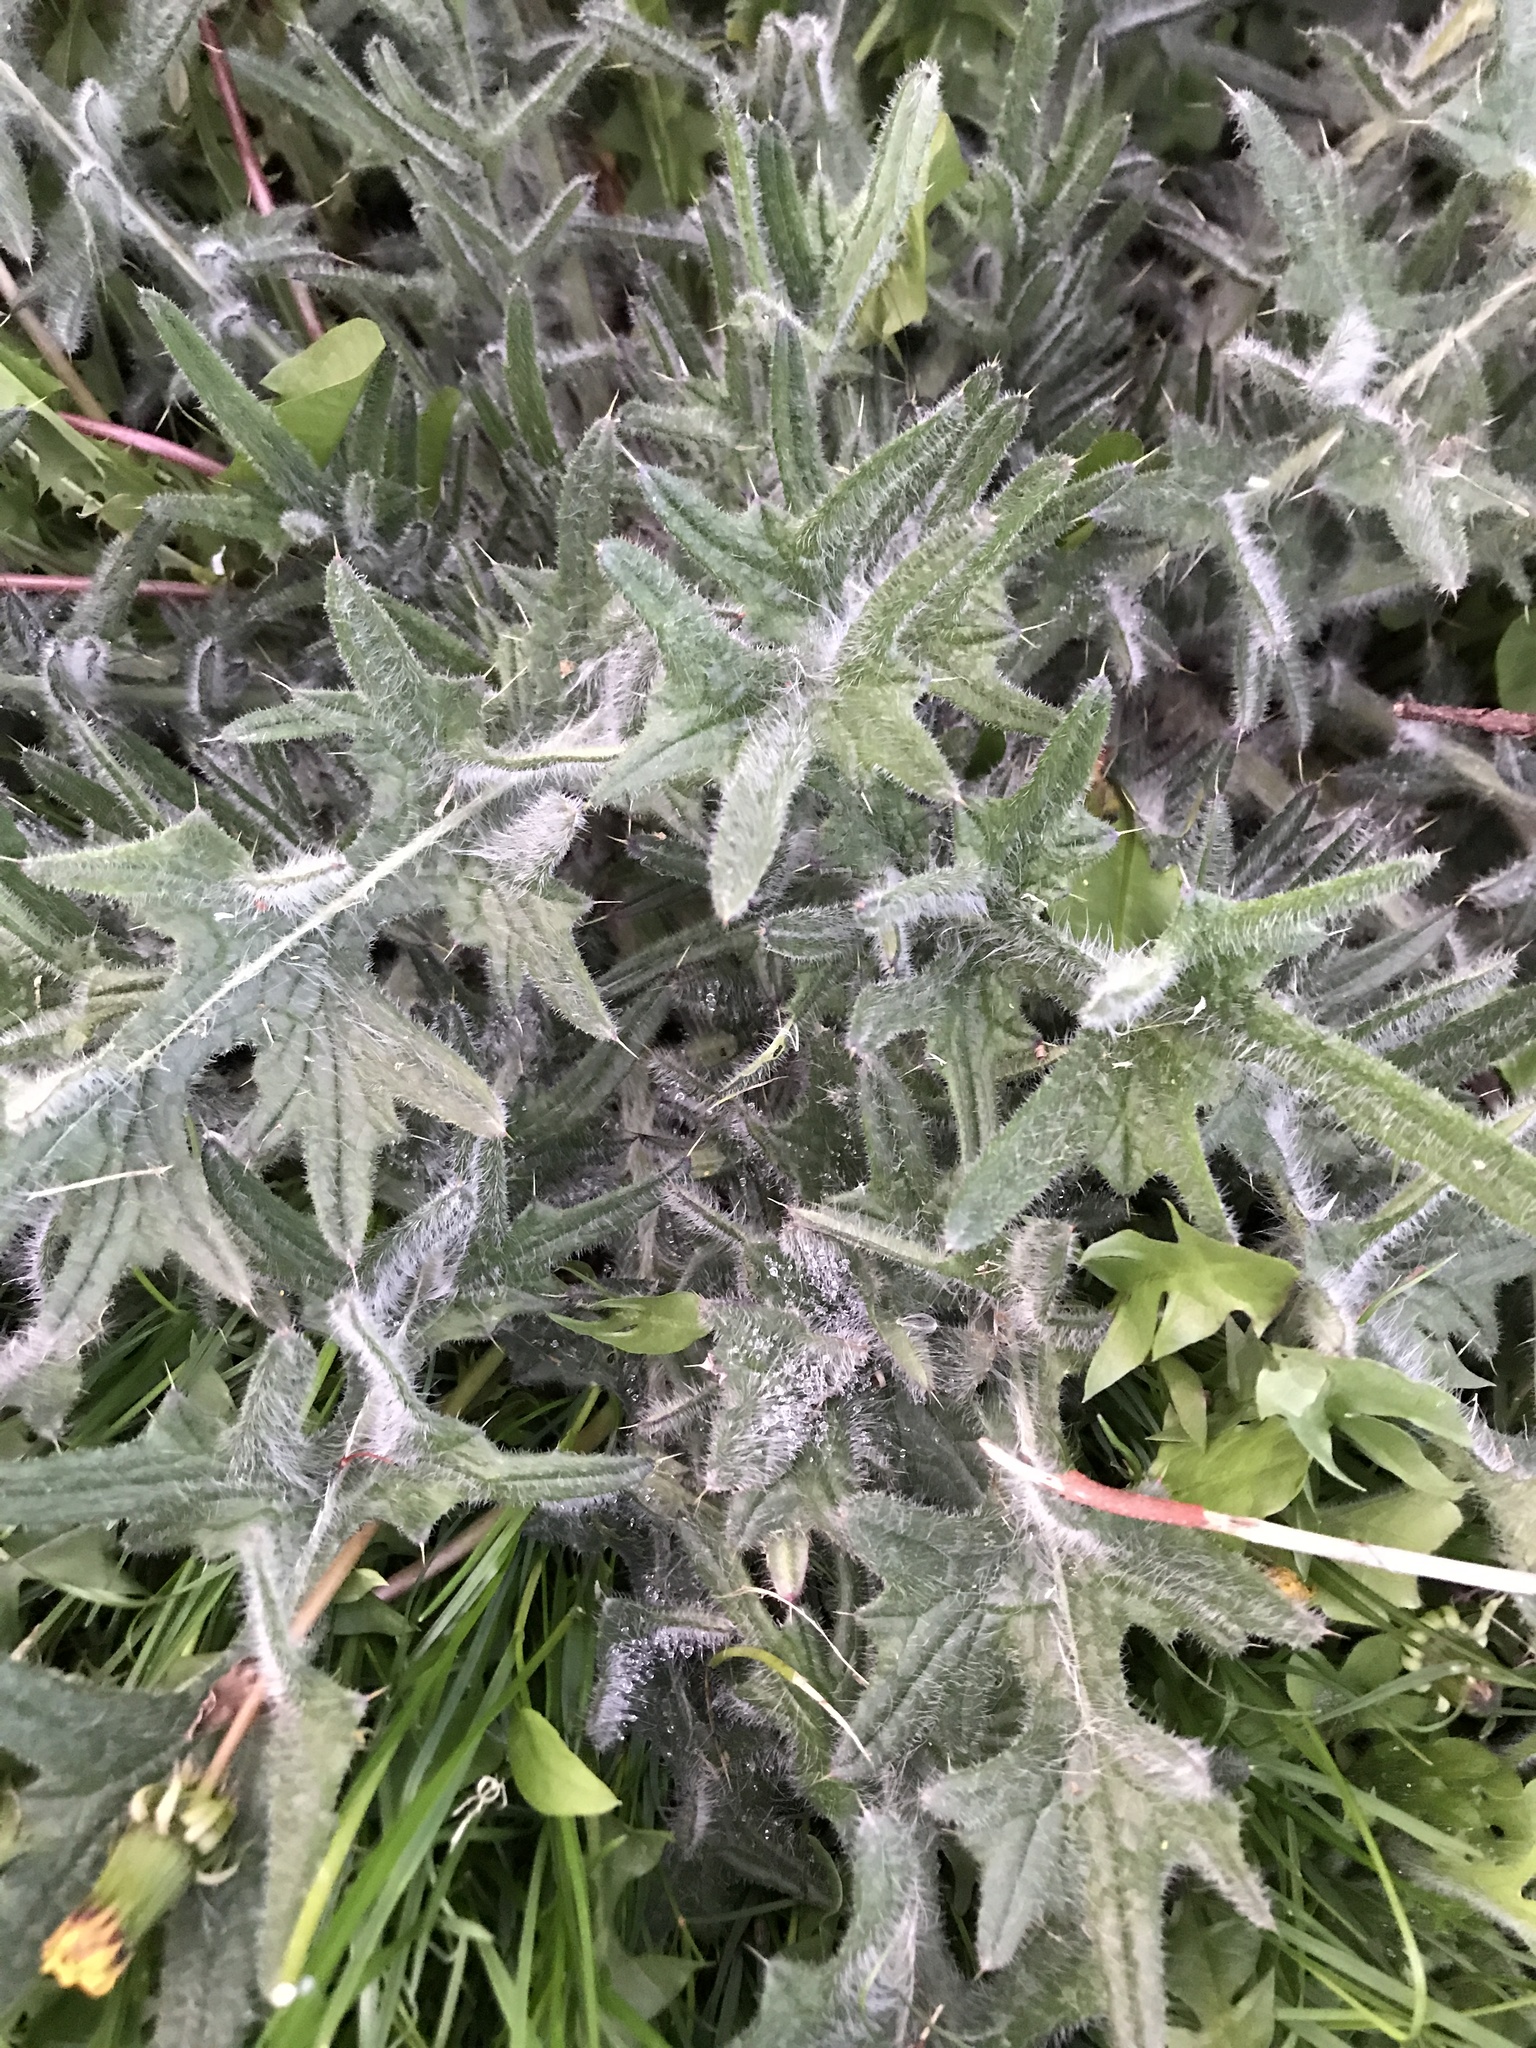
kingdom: Plantae
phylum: Tracheophyta
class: Magnoliopsida
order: Asterales
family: Asteraceae
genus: Cirsium
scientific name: Cirsium vulgare
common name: Bull thistle
